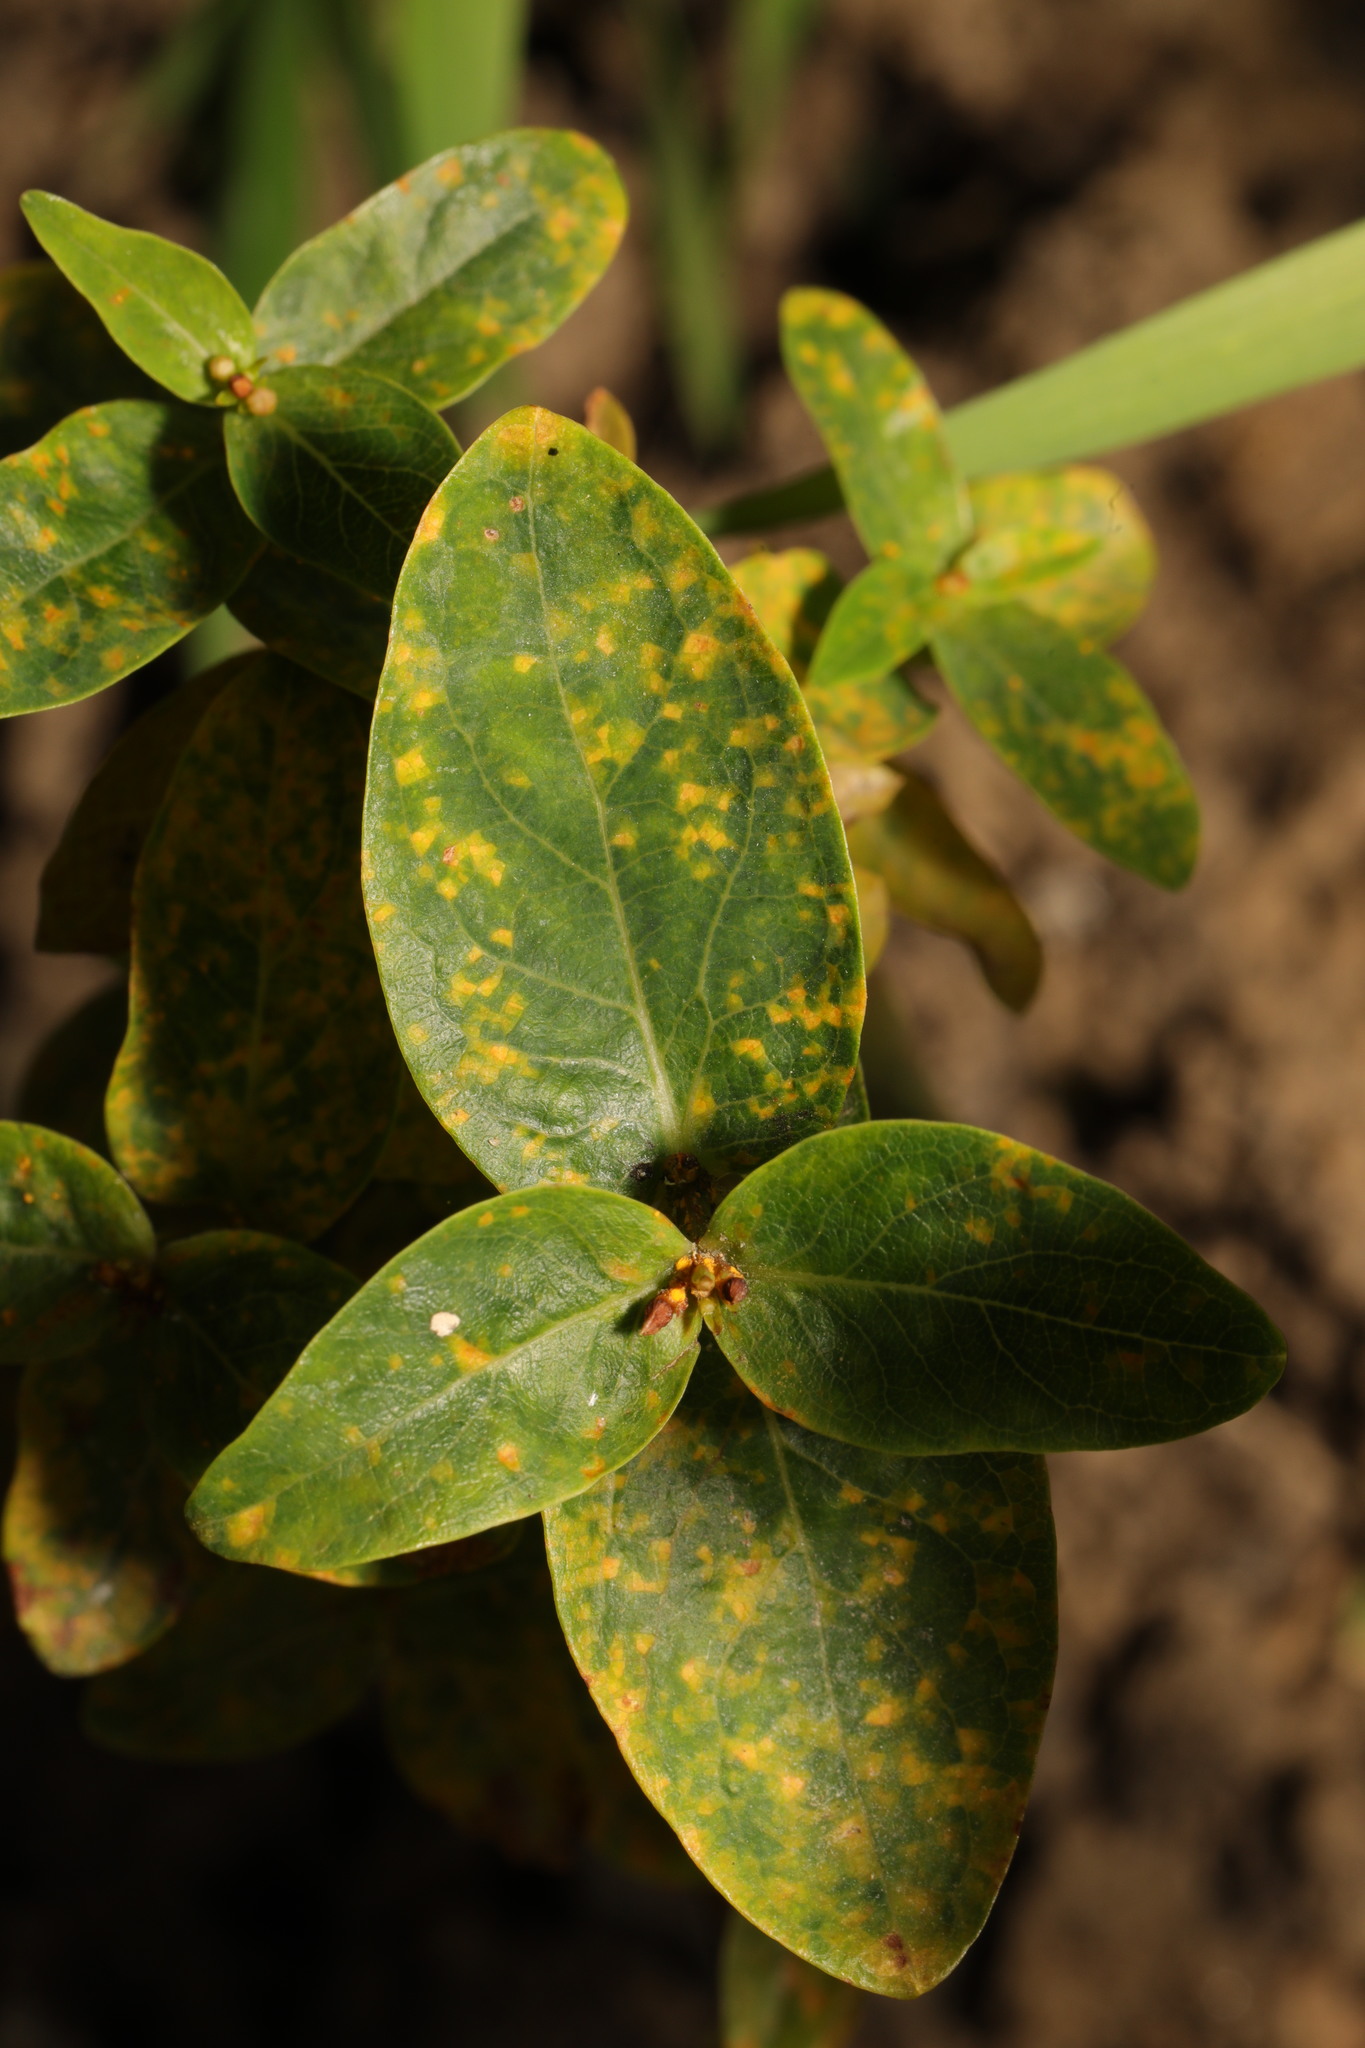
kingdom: Fungi
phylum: Basidiomycota
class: Pucciniomycetes
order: Pucciniales
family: Melampsoraceae
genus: Melampsora
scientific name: Melampsora
